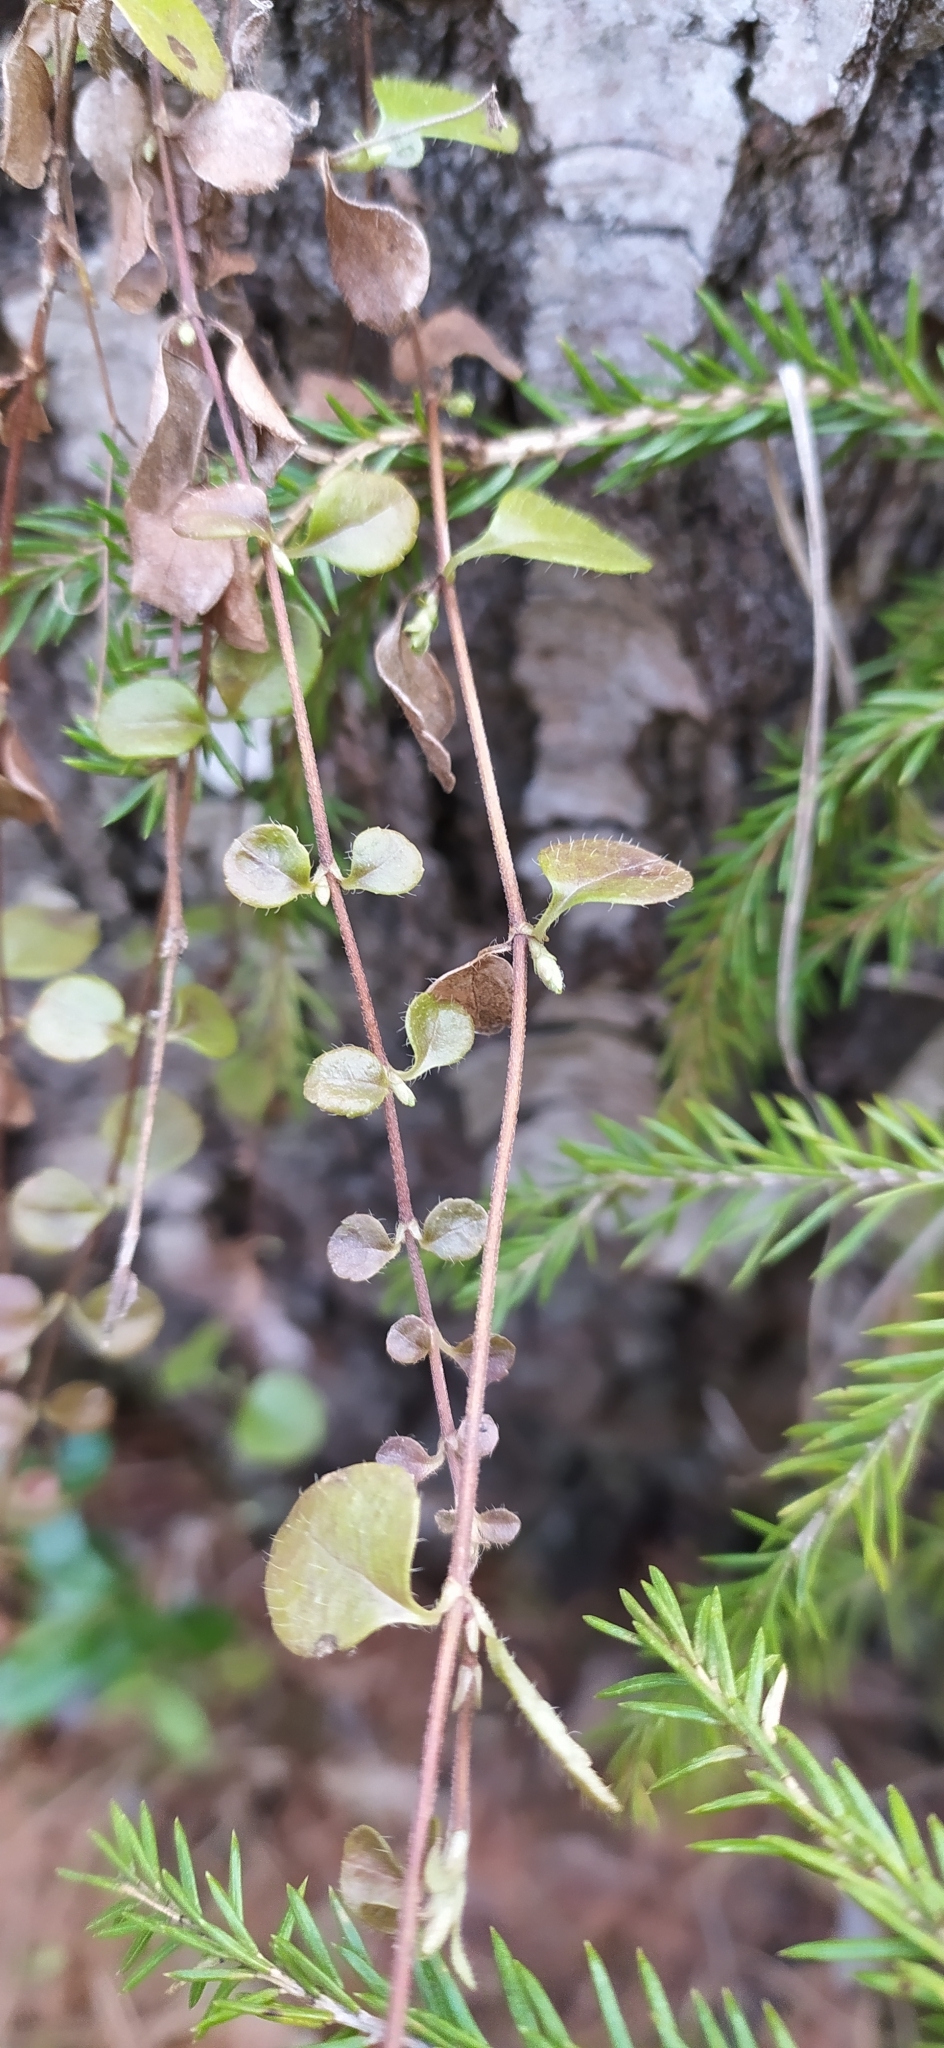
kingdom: Plantae
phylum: Tracheophyta
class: Magnoliopsida
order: Dipsacales
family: Caprifoliaceae
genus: Linnaea
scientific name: Linnaea borealis
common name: Twinflower
